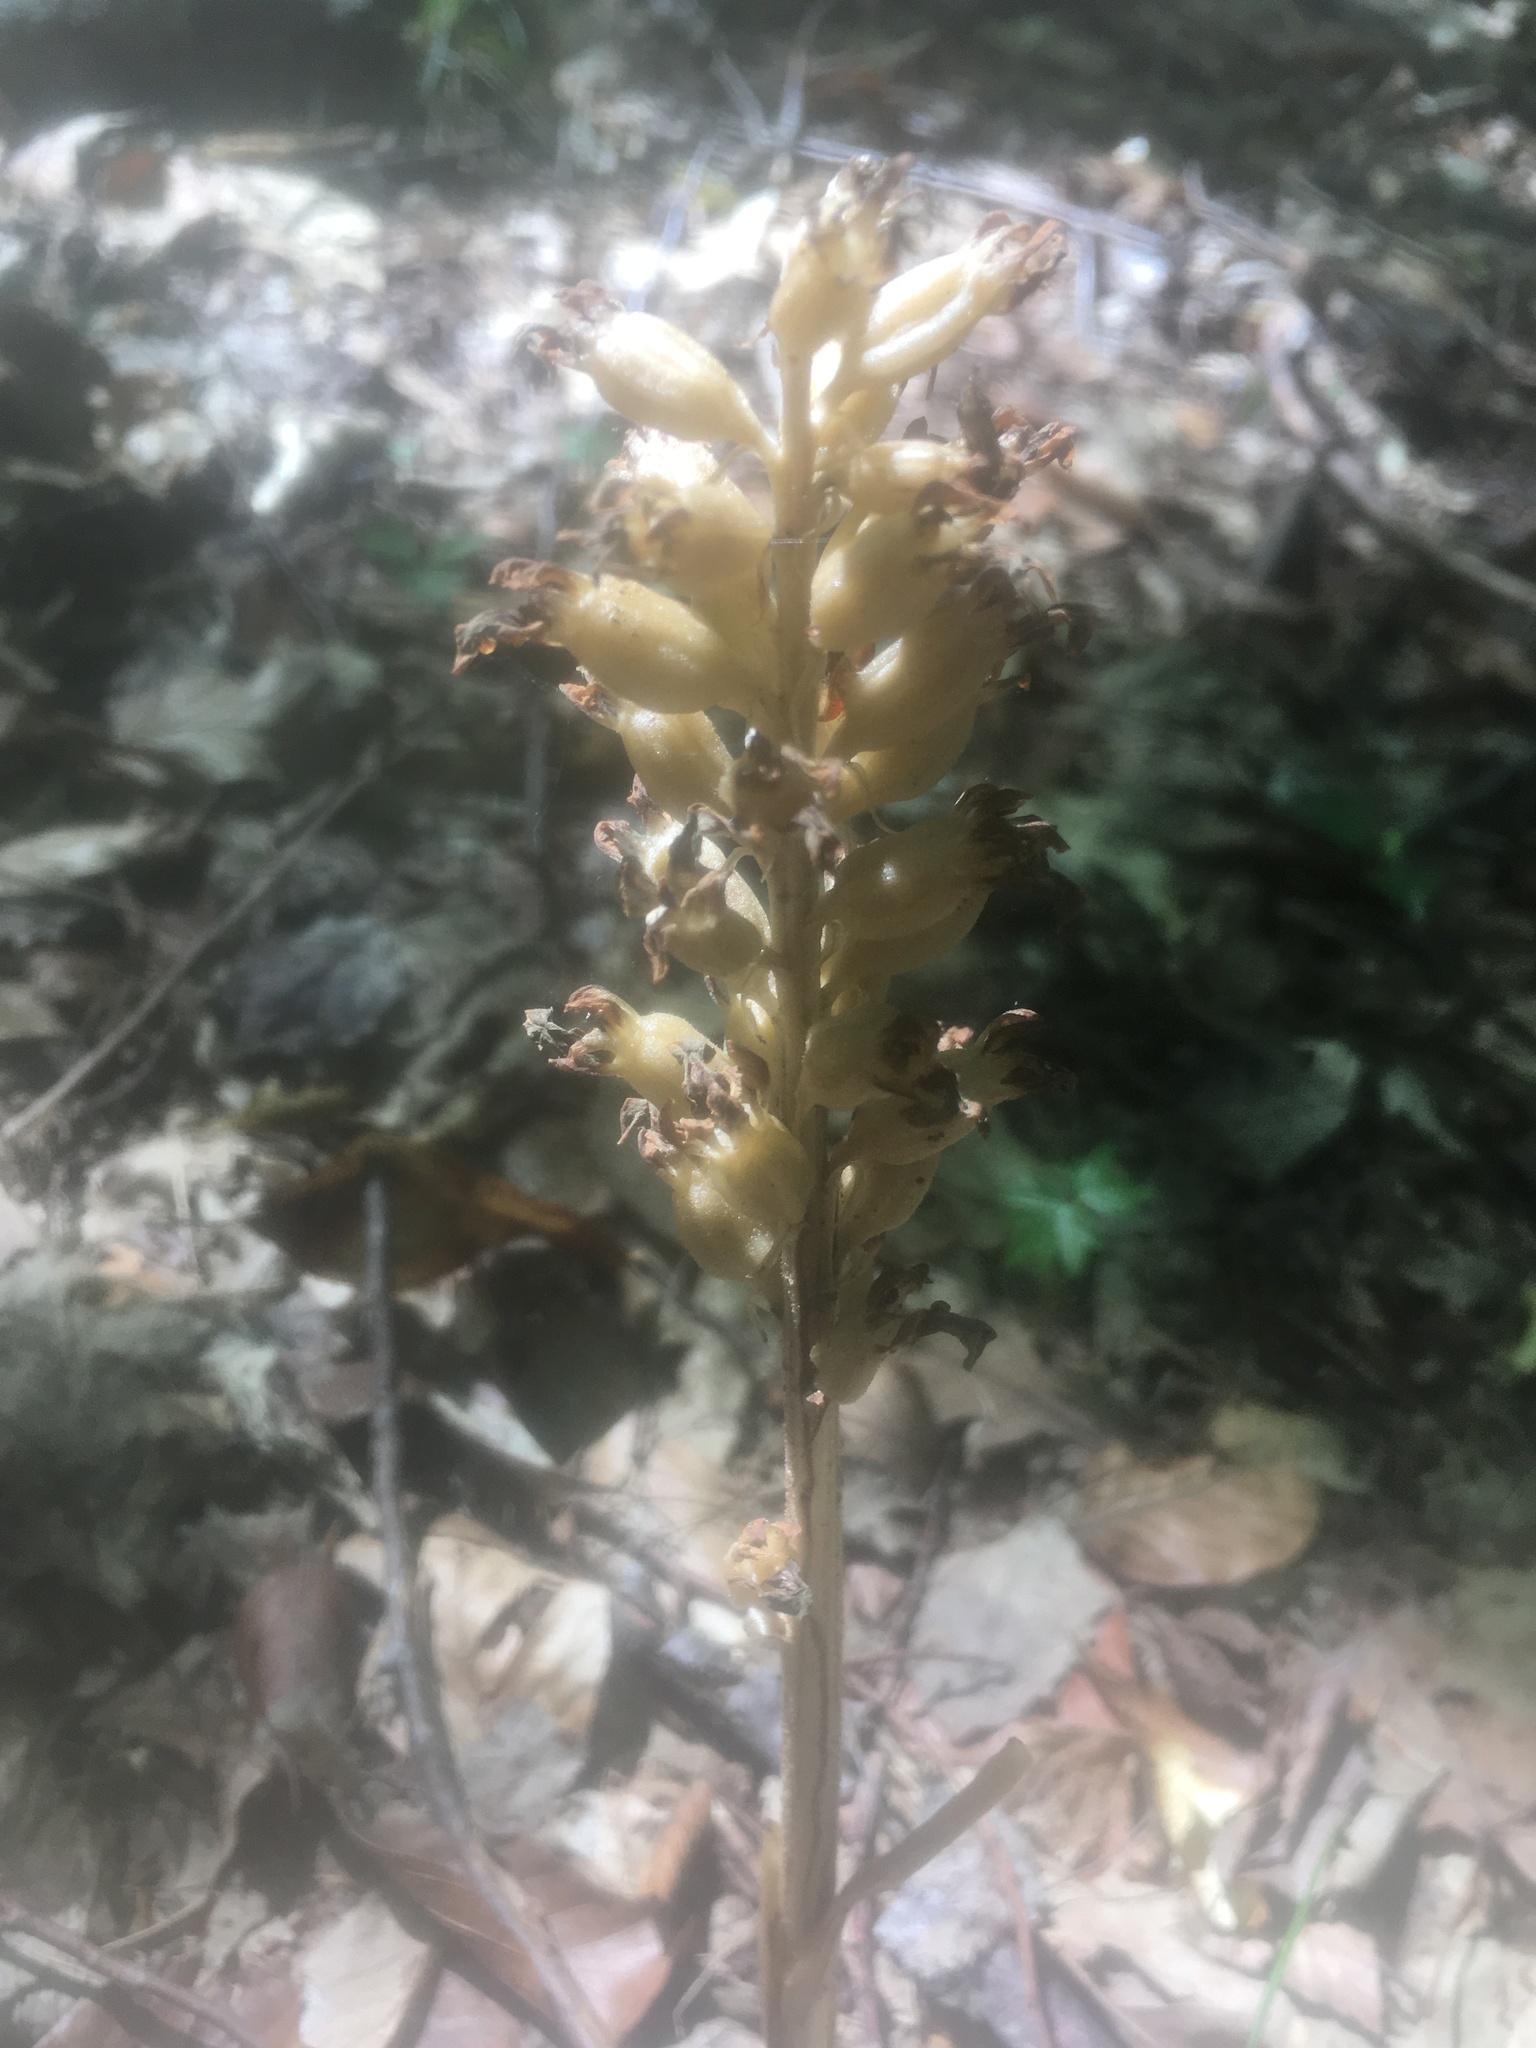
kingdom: Plantae
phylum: Tracheophyta
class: Liliopsida
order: Asparagales
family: Orchidaceae
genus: Neottia
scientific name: Neottia nidus-avis
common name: Bird's-nest orchid
